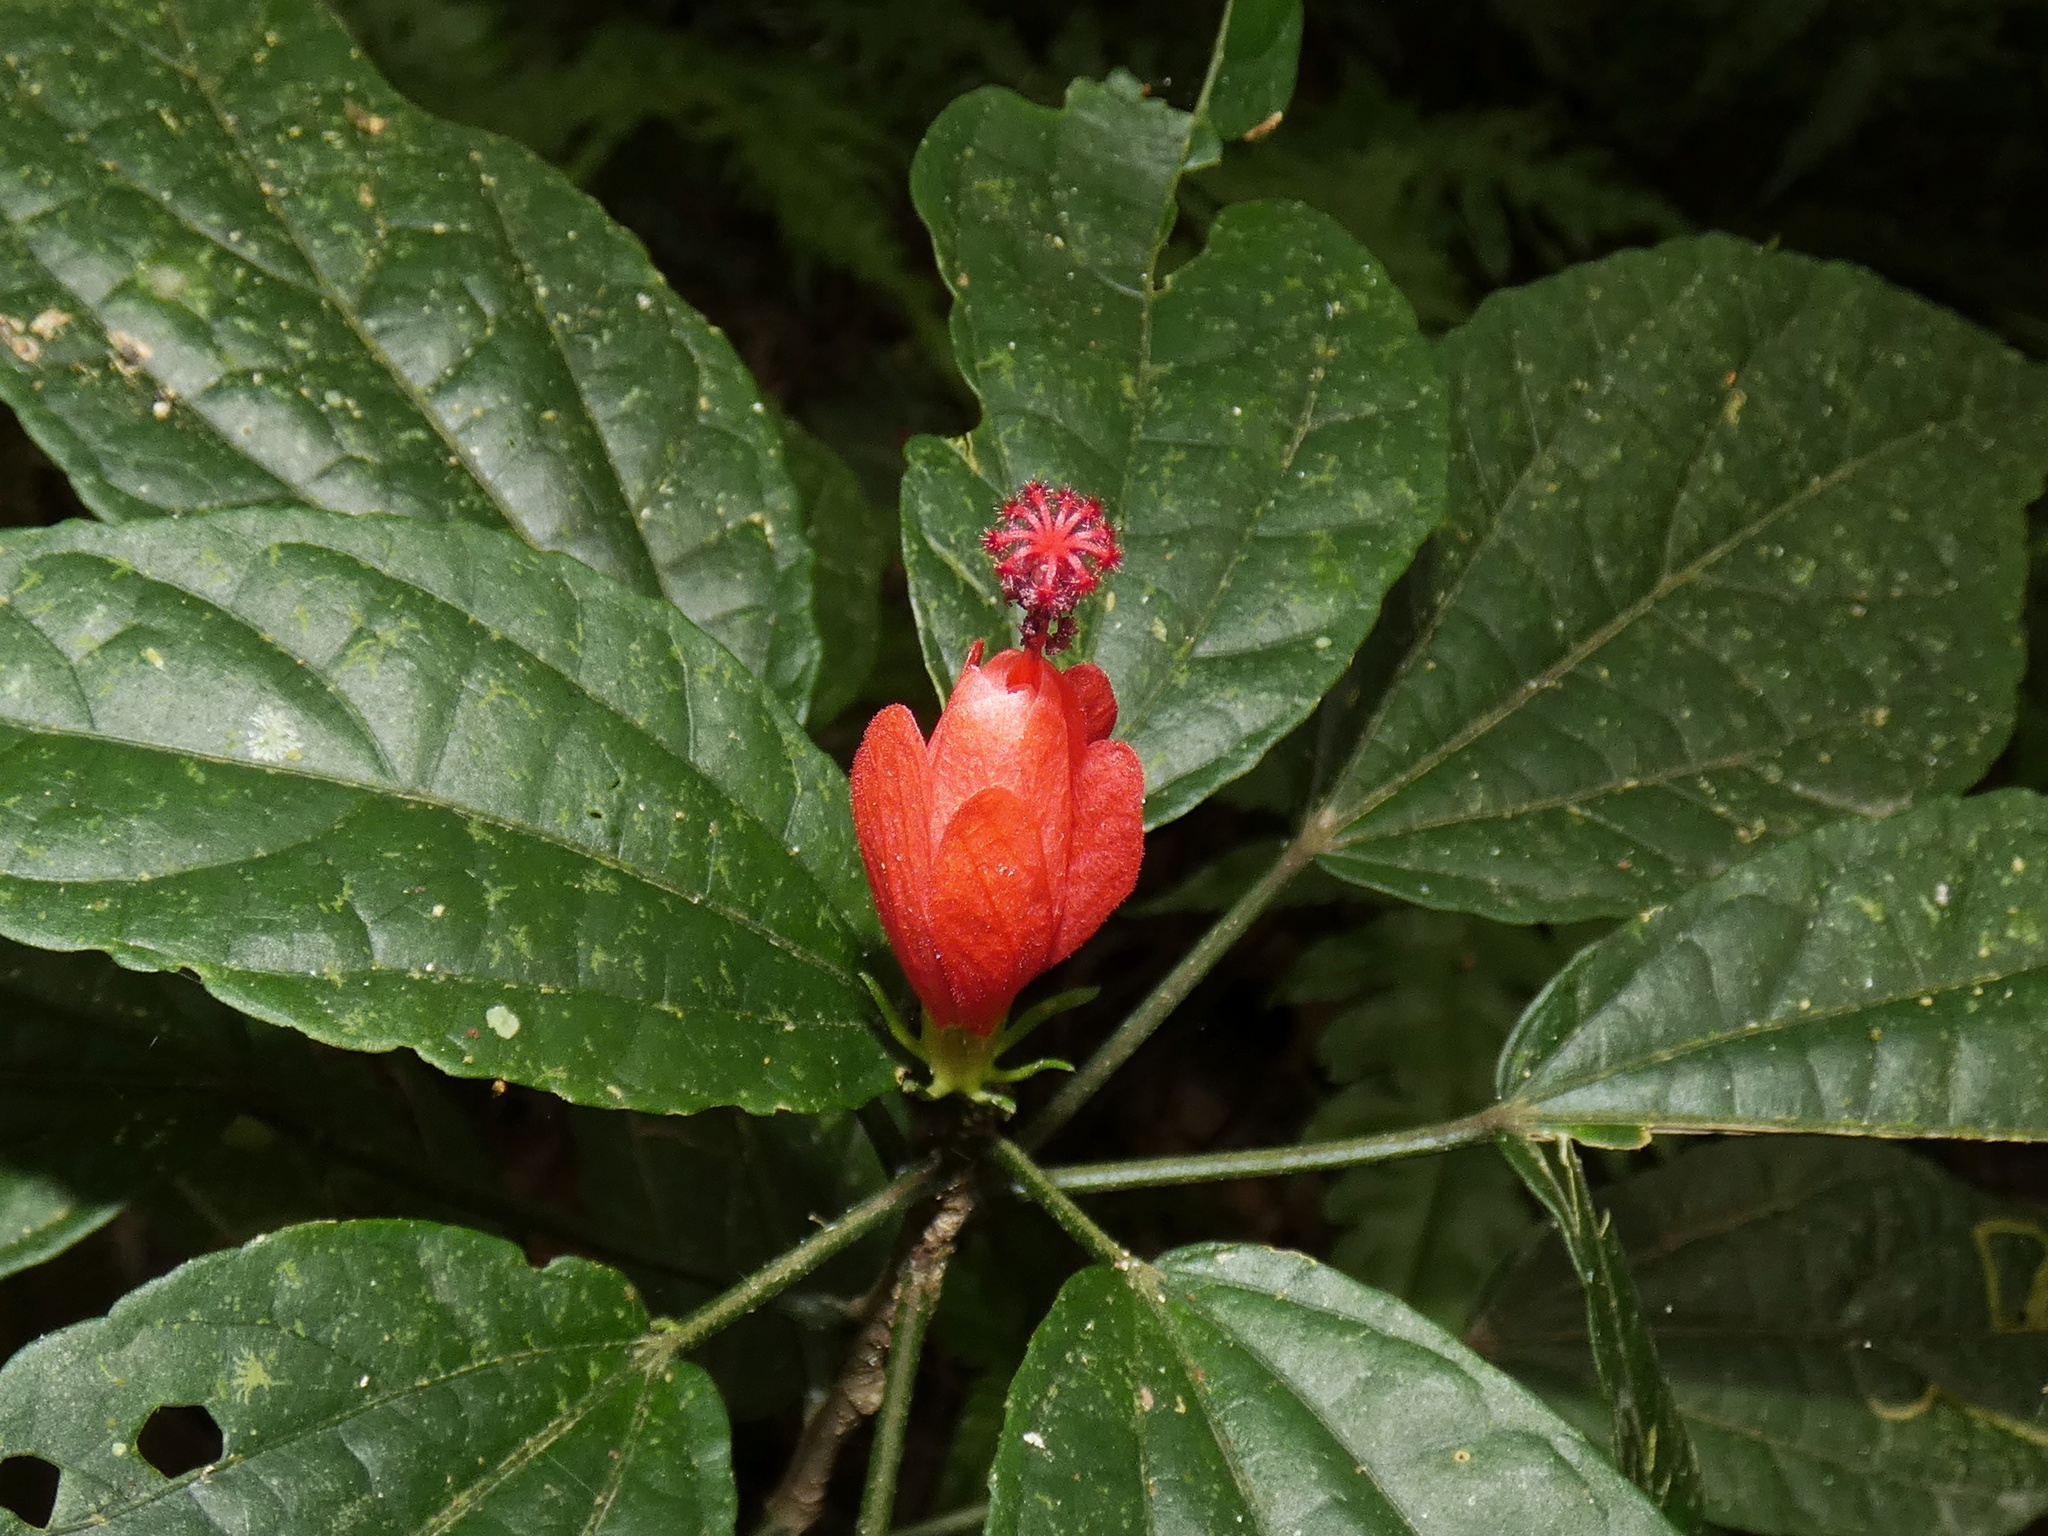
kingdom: Plantae
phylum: Tracheophyta
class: Magnoliopsida
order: Malvales
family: Malvaceae
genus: Malvaviscus
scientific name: Malvaviscus arboreus
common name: Wax mallow
